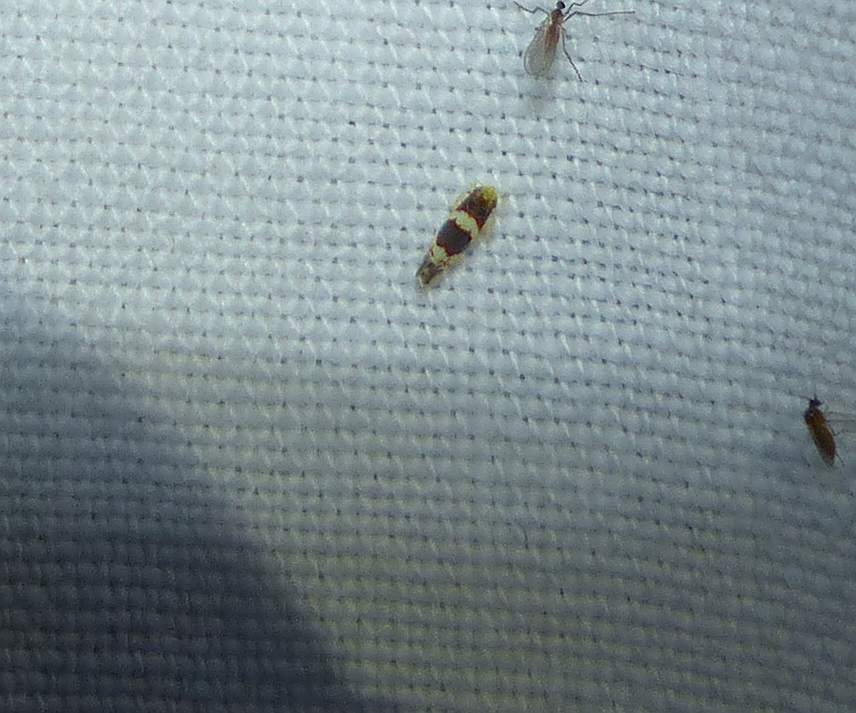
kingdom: Animalia
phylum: Arthropoda
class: Insecta
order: Hemiptera
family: Cicadellidae
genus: Erythroneura
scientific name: Erythroneura bistrata
